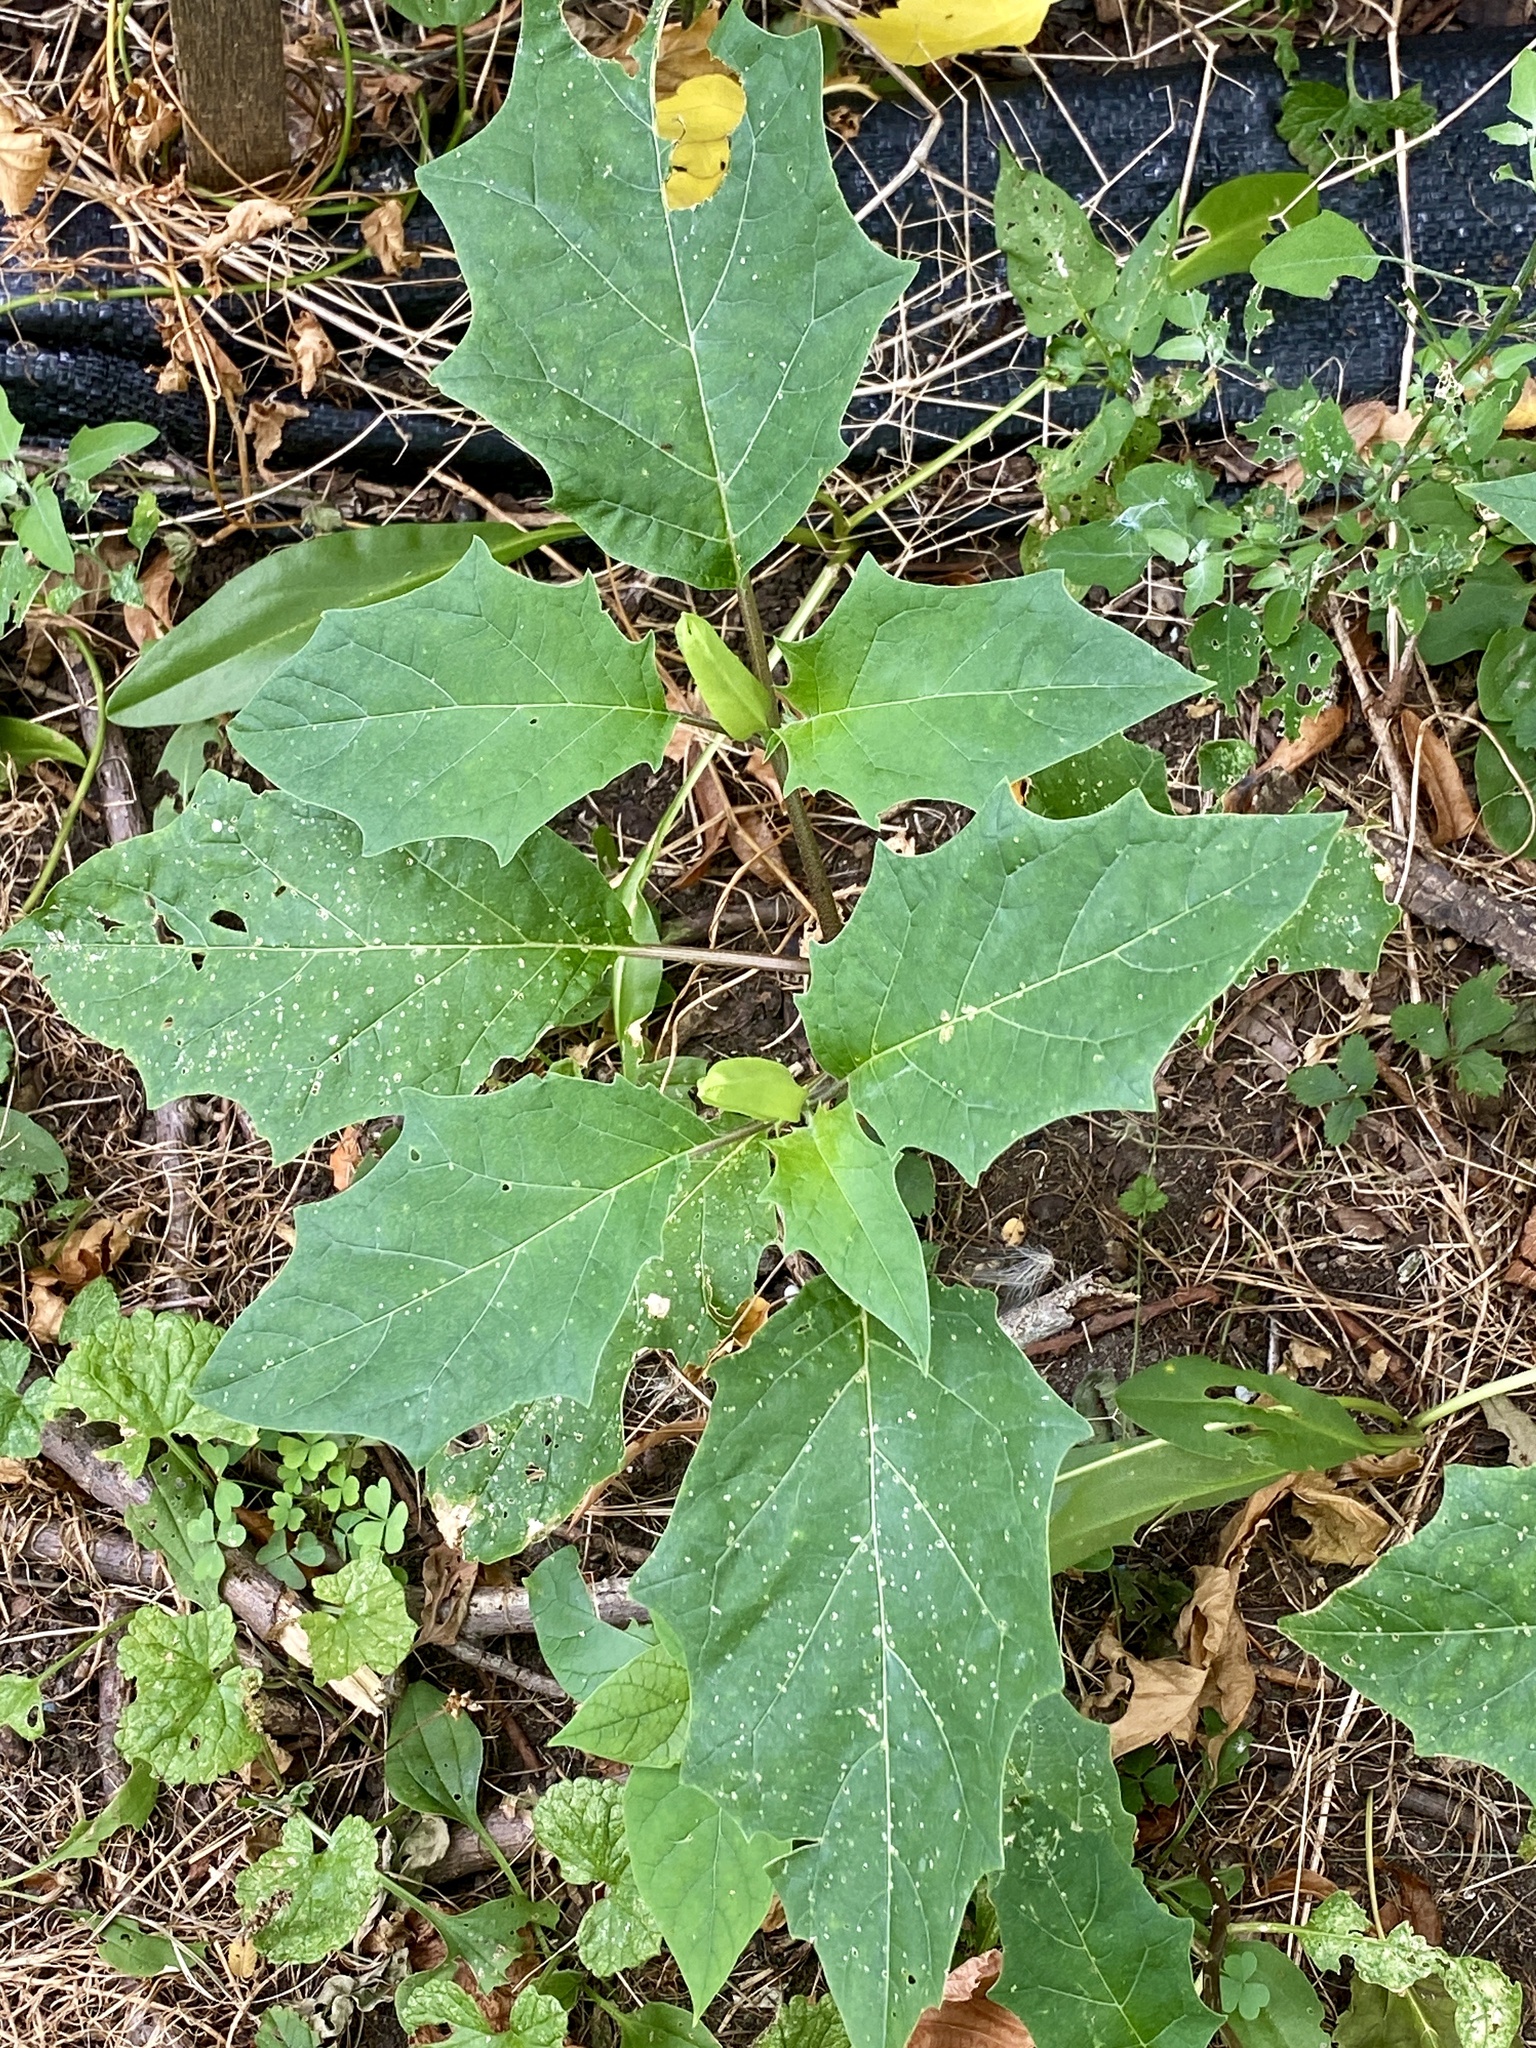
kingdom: Plantae
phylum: Tracheophyta
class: Magnoliopsida
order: Solanales
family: Solanaceae
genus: Datura
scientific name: Datura stramonium
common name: Thorn-apple
